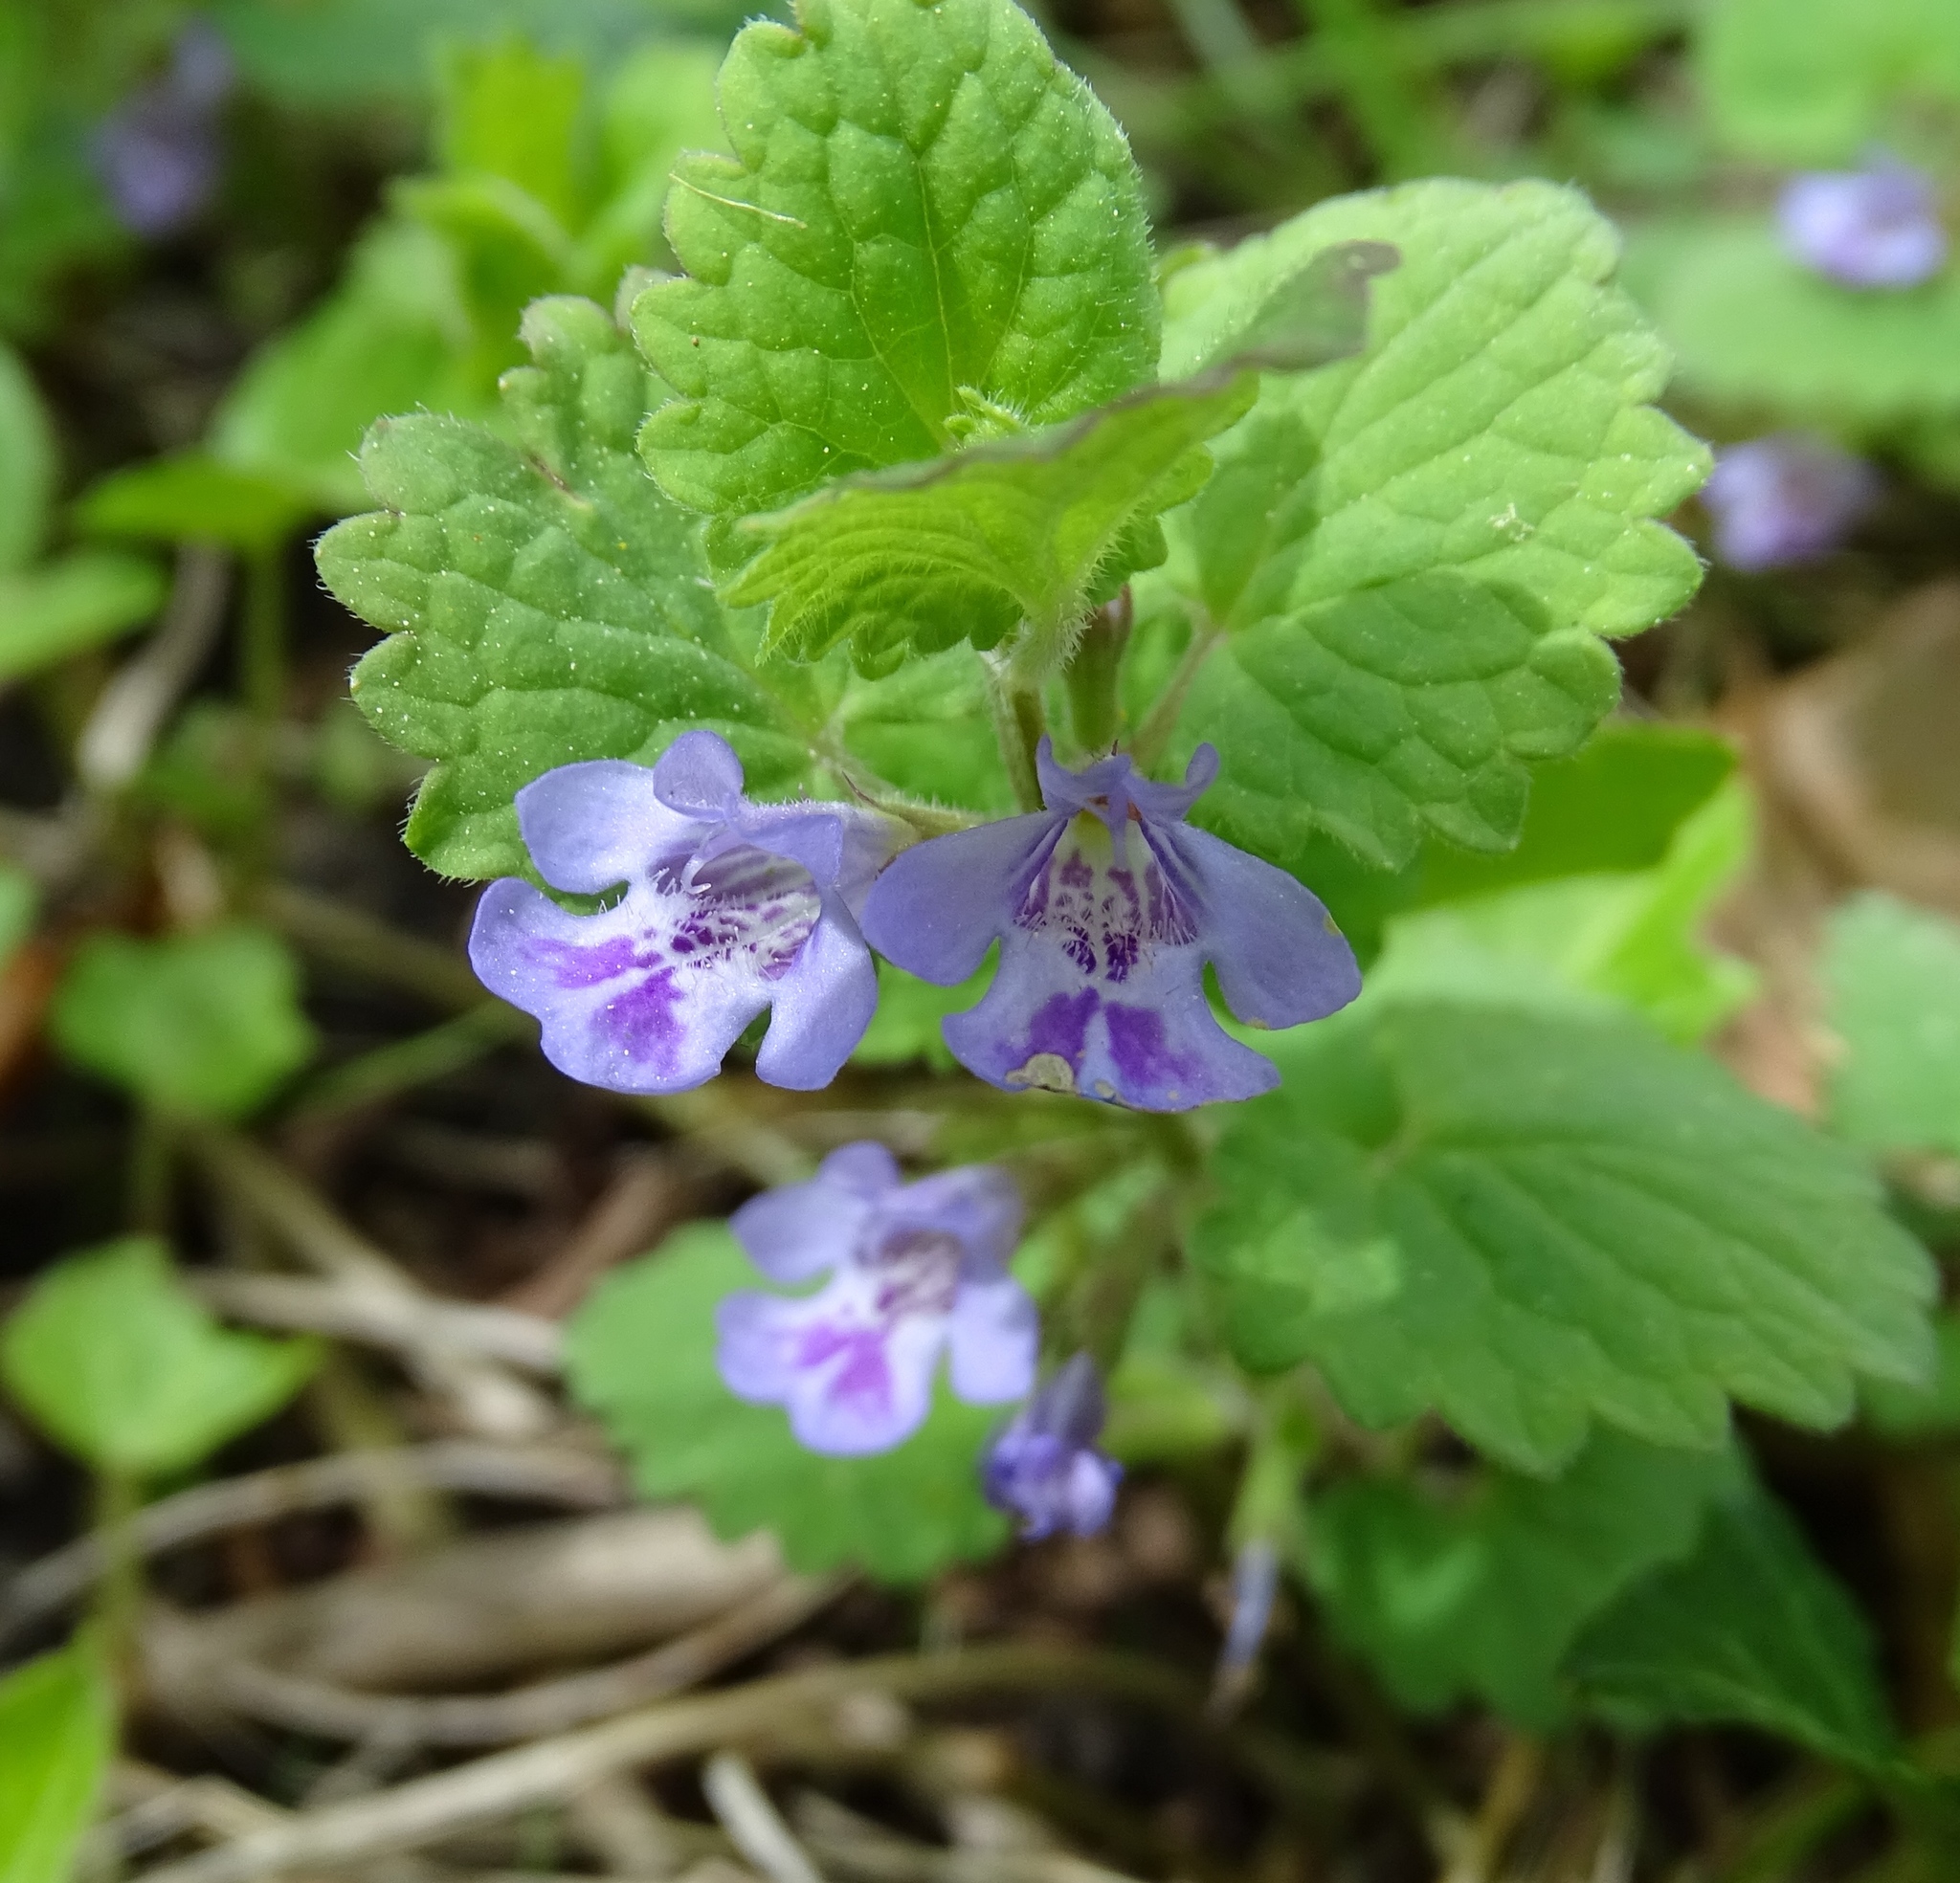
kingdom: Plantae
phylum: Tracheophyta
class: Magnoliopsida
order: Lamiales
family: Lamiaceae
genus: Glechoma
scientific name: Glechoma hederacea
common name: Ground ivy
